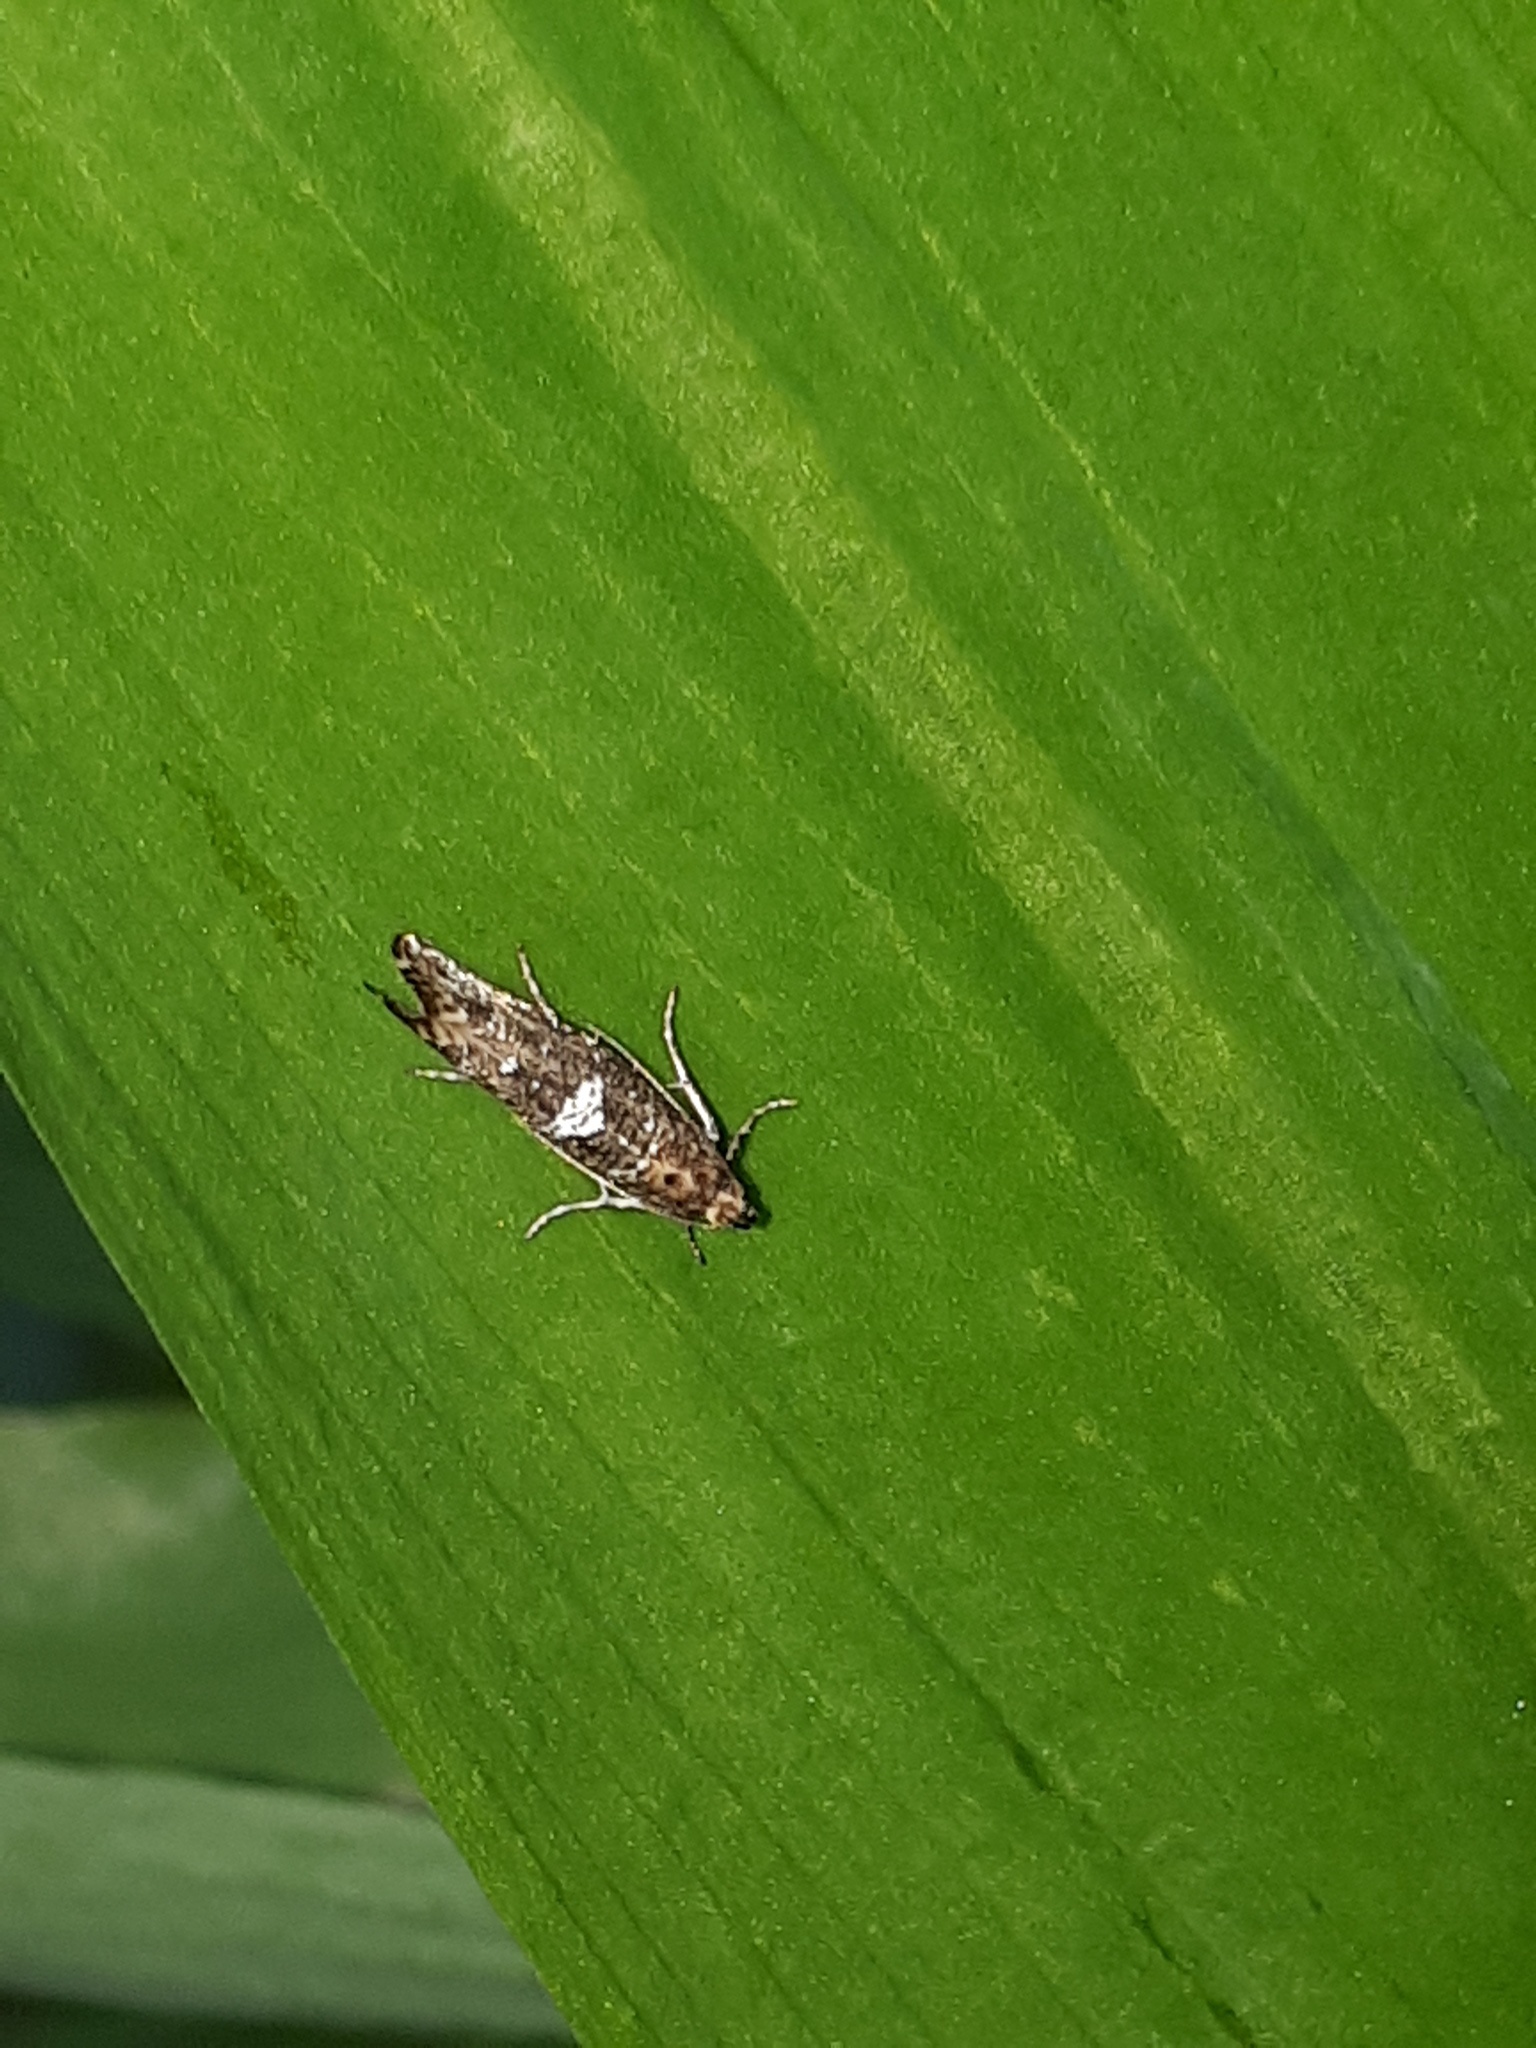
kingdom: Animalia
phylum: Arthropoda
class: Insecta
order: Lepidoptera
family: Glyphipterigidae
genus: Acrolepia
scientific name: Acrolepia assectella
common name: Onion leaf miner
